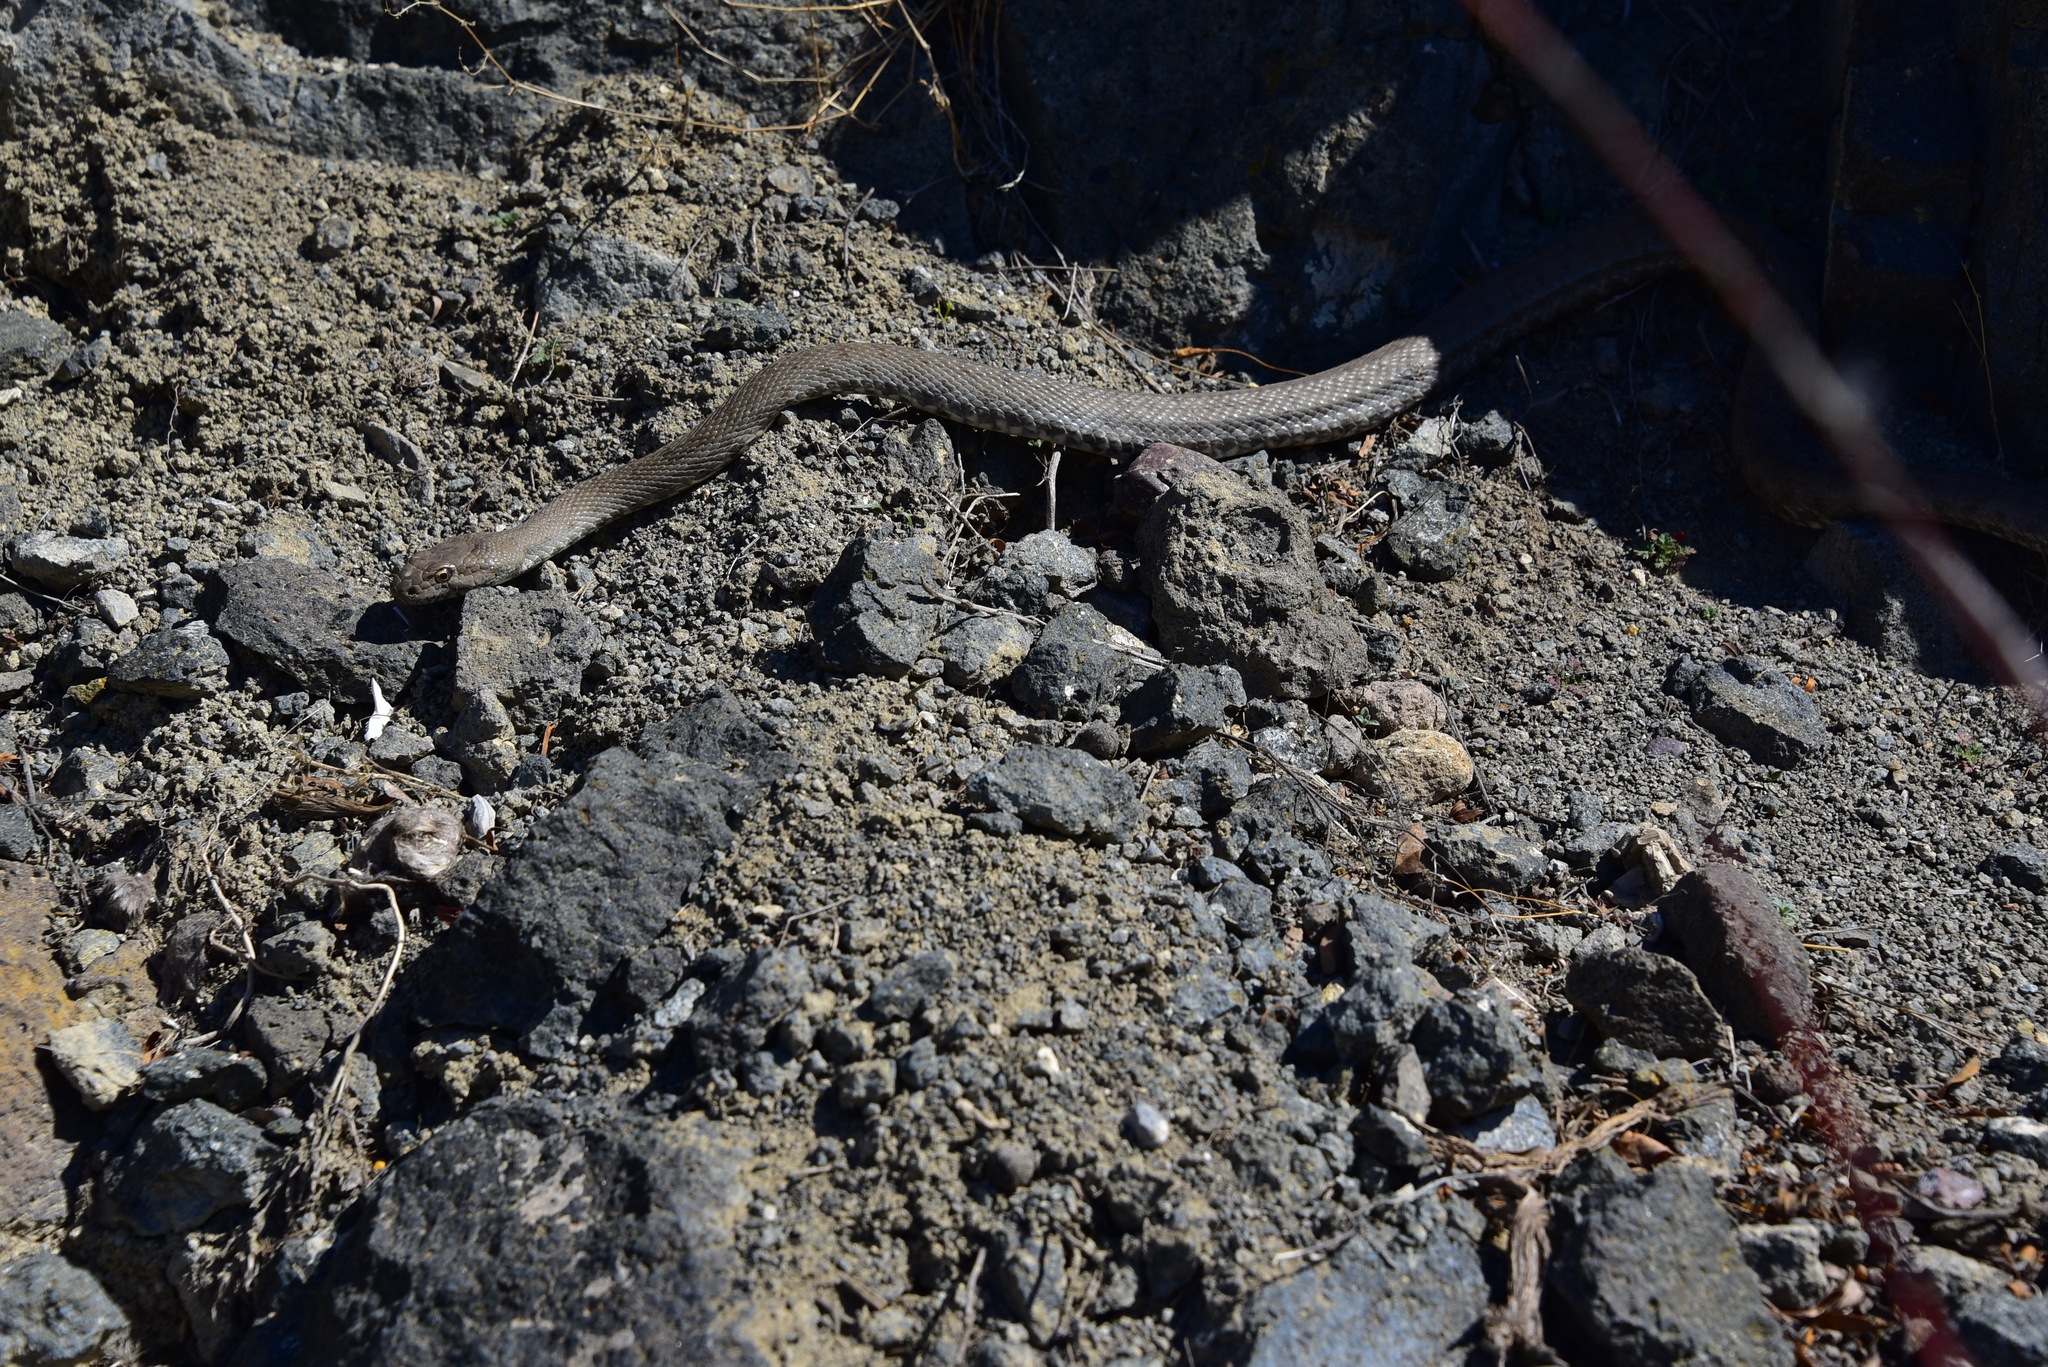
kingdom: Animalia
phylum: Chordata
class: Squamata
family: Colubridae
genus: Hemorrhois
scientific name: Hemorrhois nummifer
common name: Asian racer
